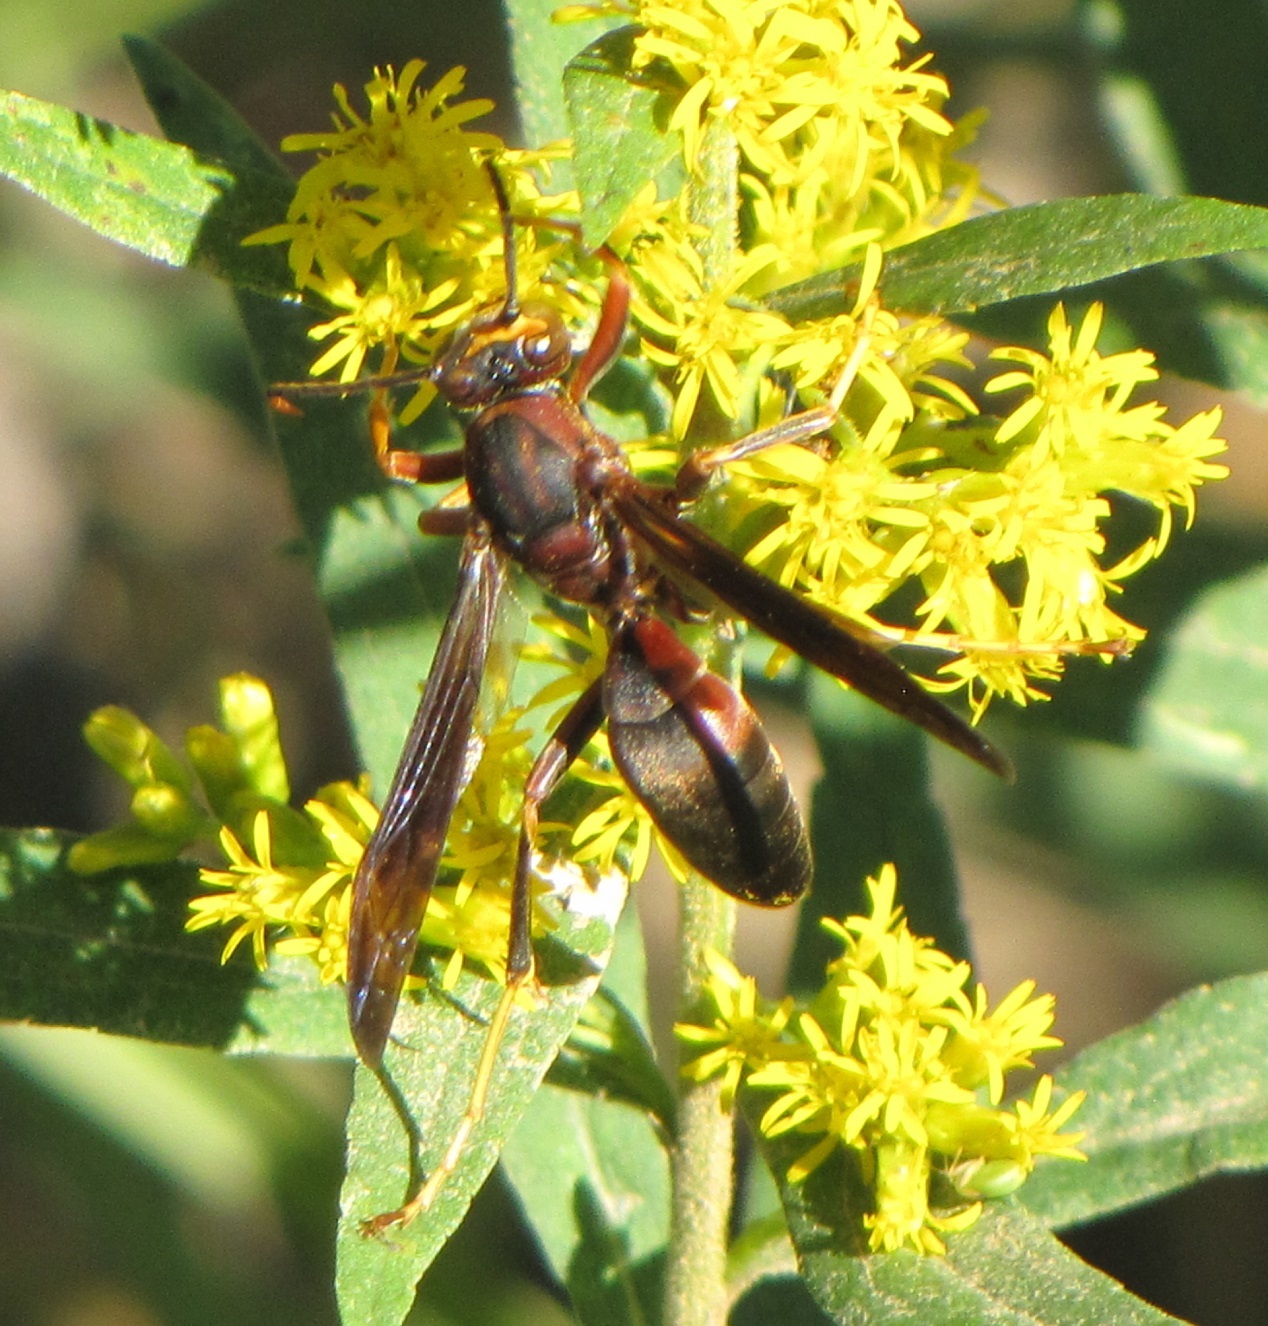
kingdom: Animalia
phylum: Arthropoda
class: Insecta
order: Hymenoptera
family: Eumenidae
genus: Polistes
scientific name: Polistes metricus
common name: Metric paper wasp
